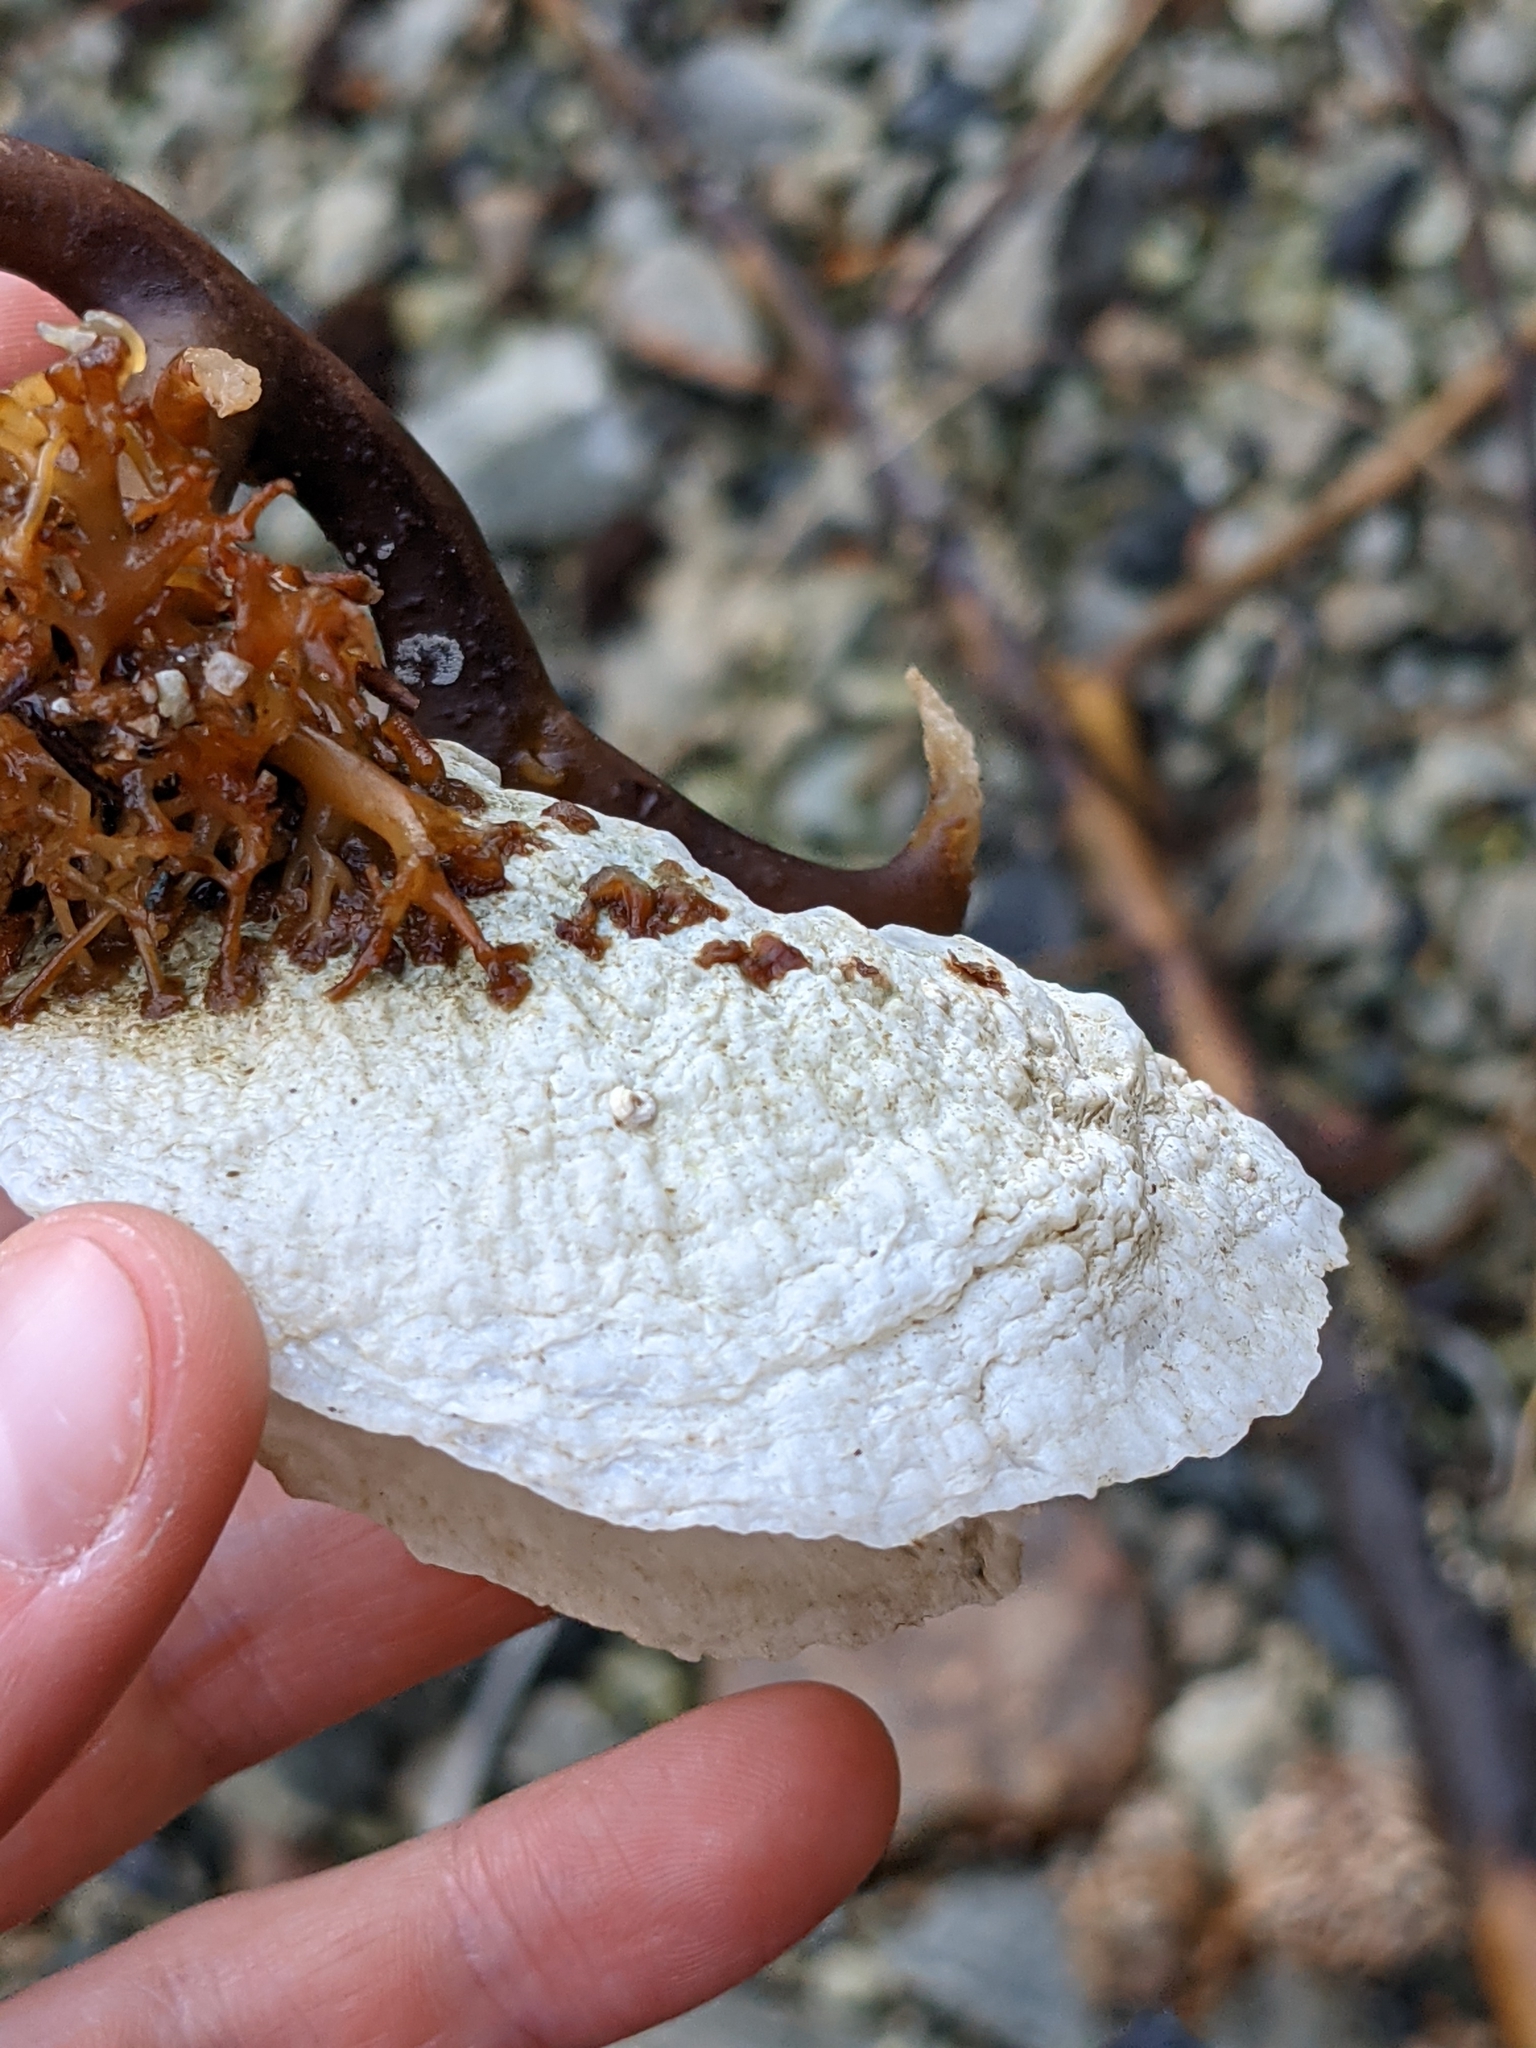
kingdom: Animalia
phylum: Mollusca
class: Bivalvia
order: Pectinida
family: Anomiidae
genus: Pododesmus
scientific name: Pododesmus macrochisma
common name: Alaska jingle
